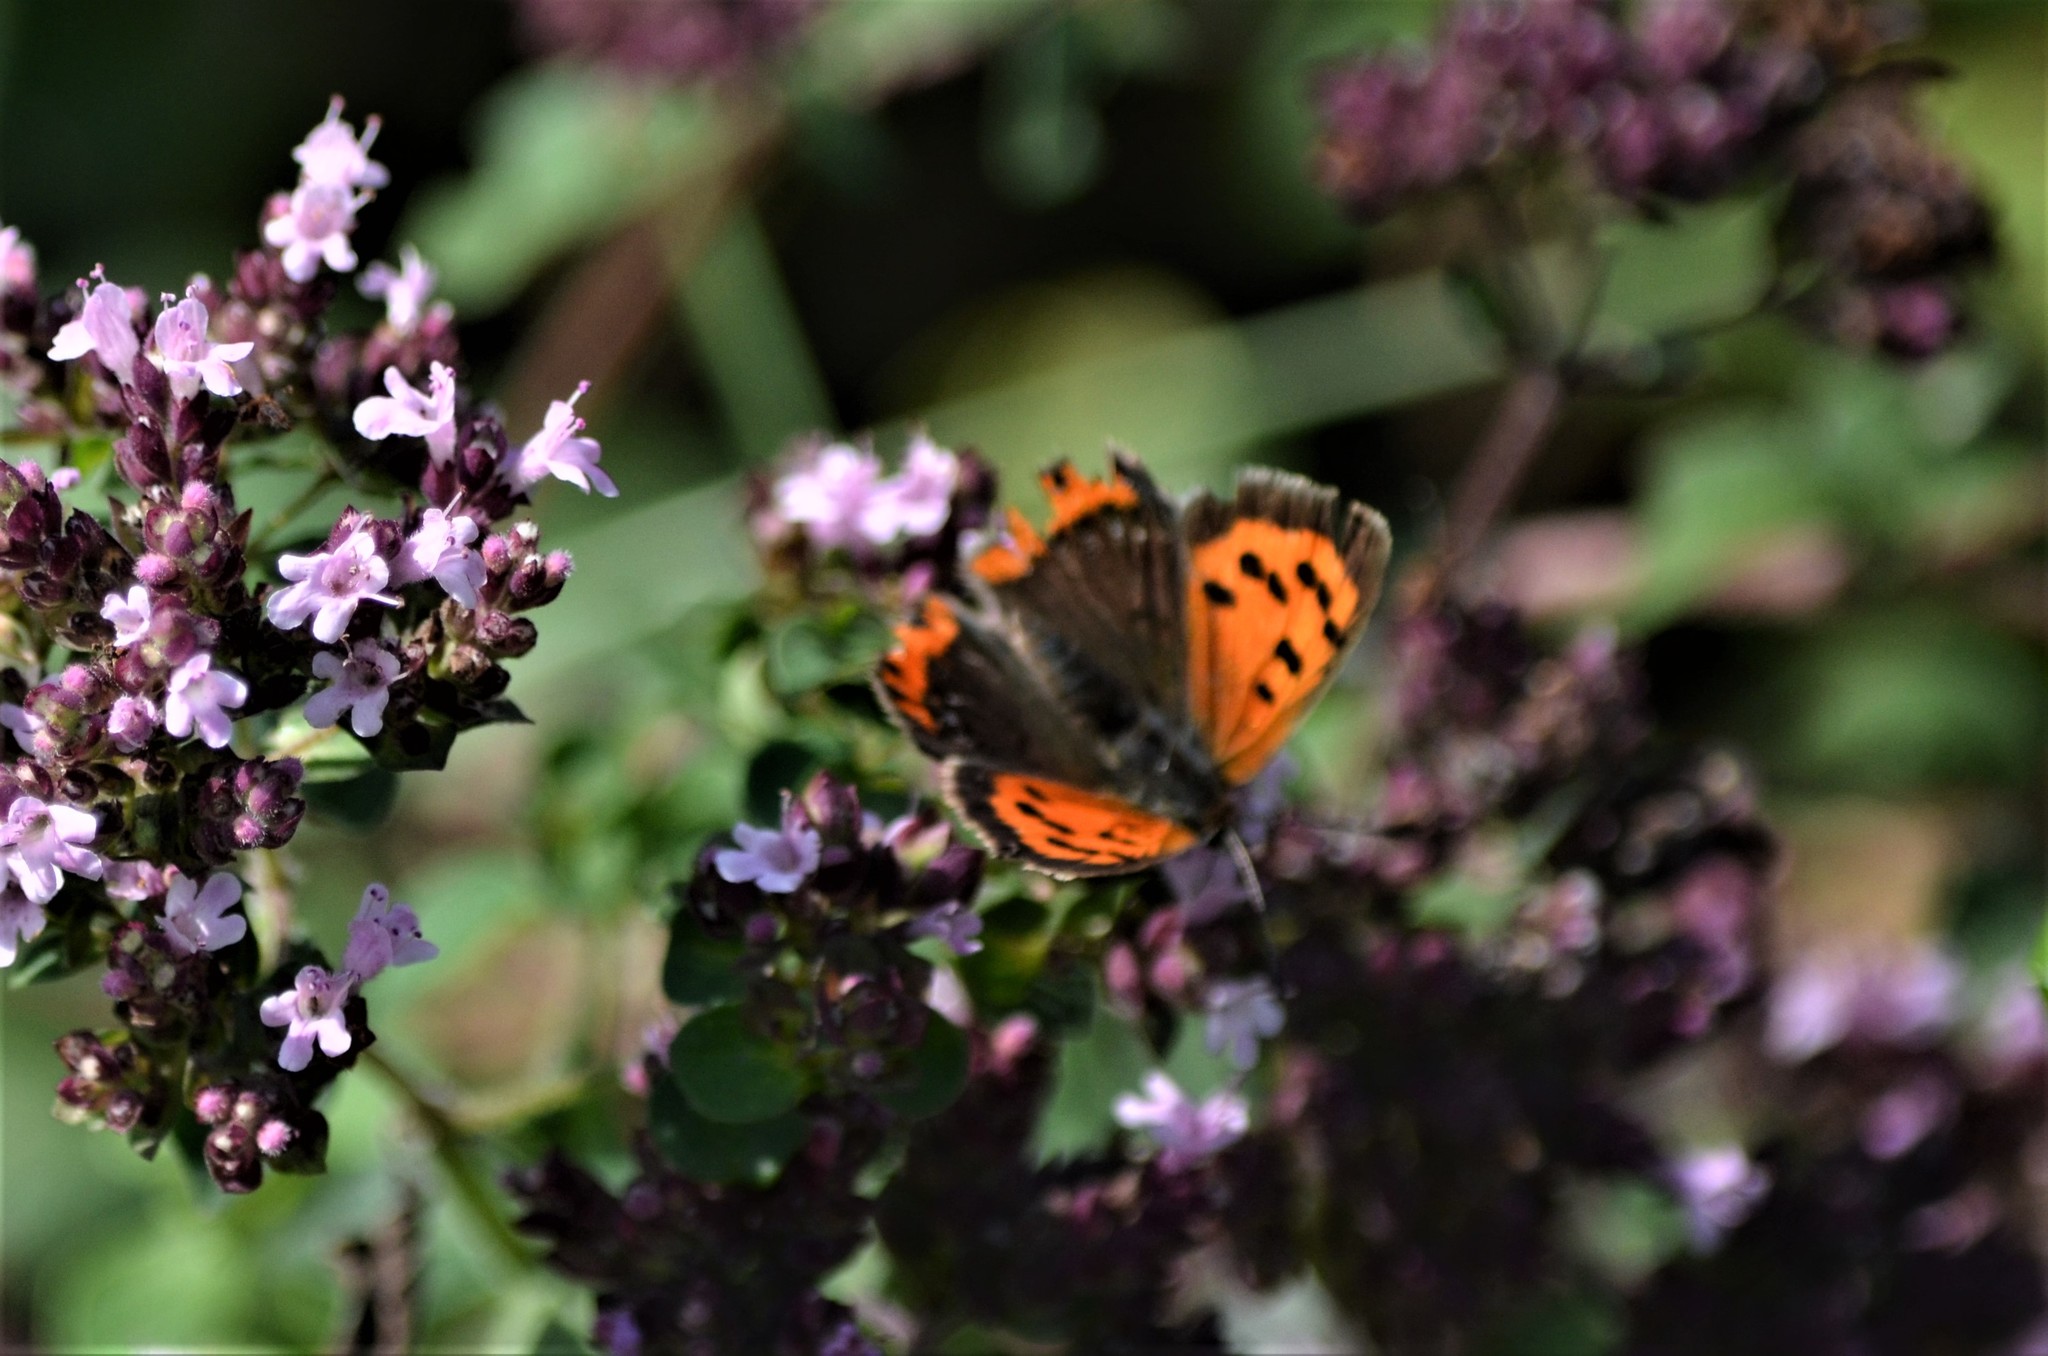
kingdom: Animalia
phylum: Arthropoda
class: Insecta
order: Lepidoptera
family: Lycaenidae
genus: Lycaena
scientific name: Lycaena phlaeas
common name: Small copper
